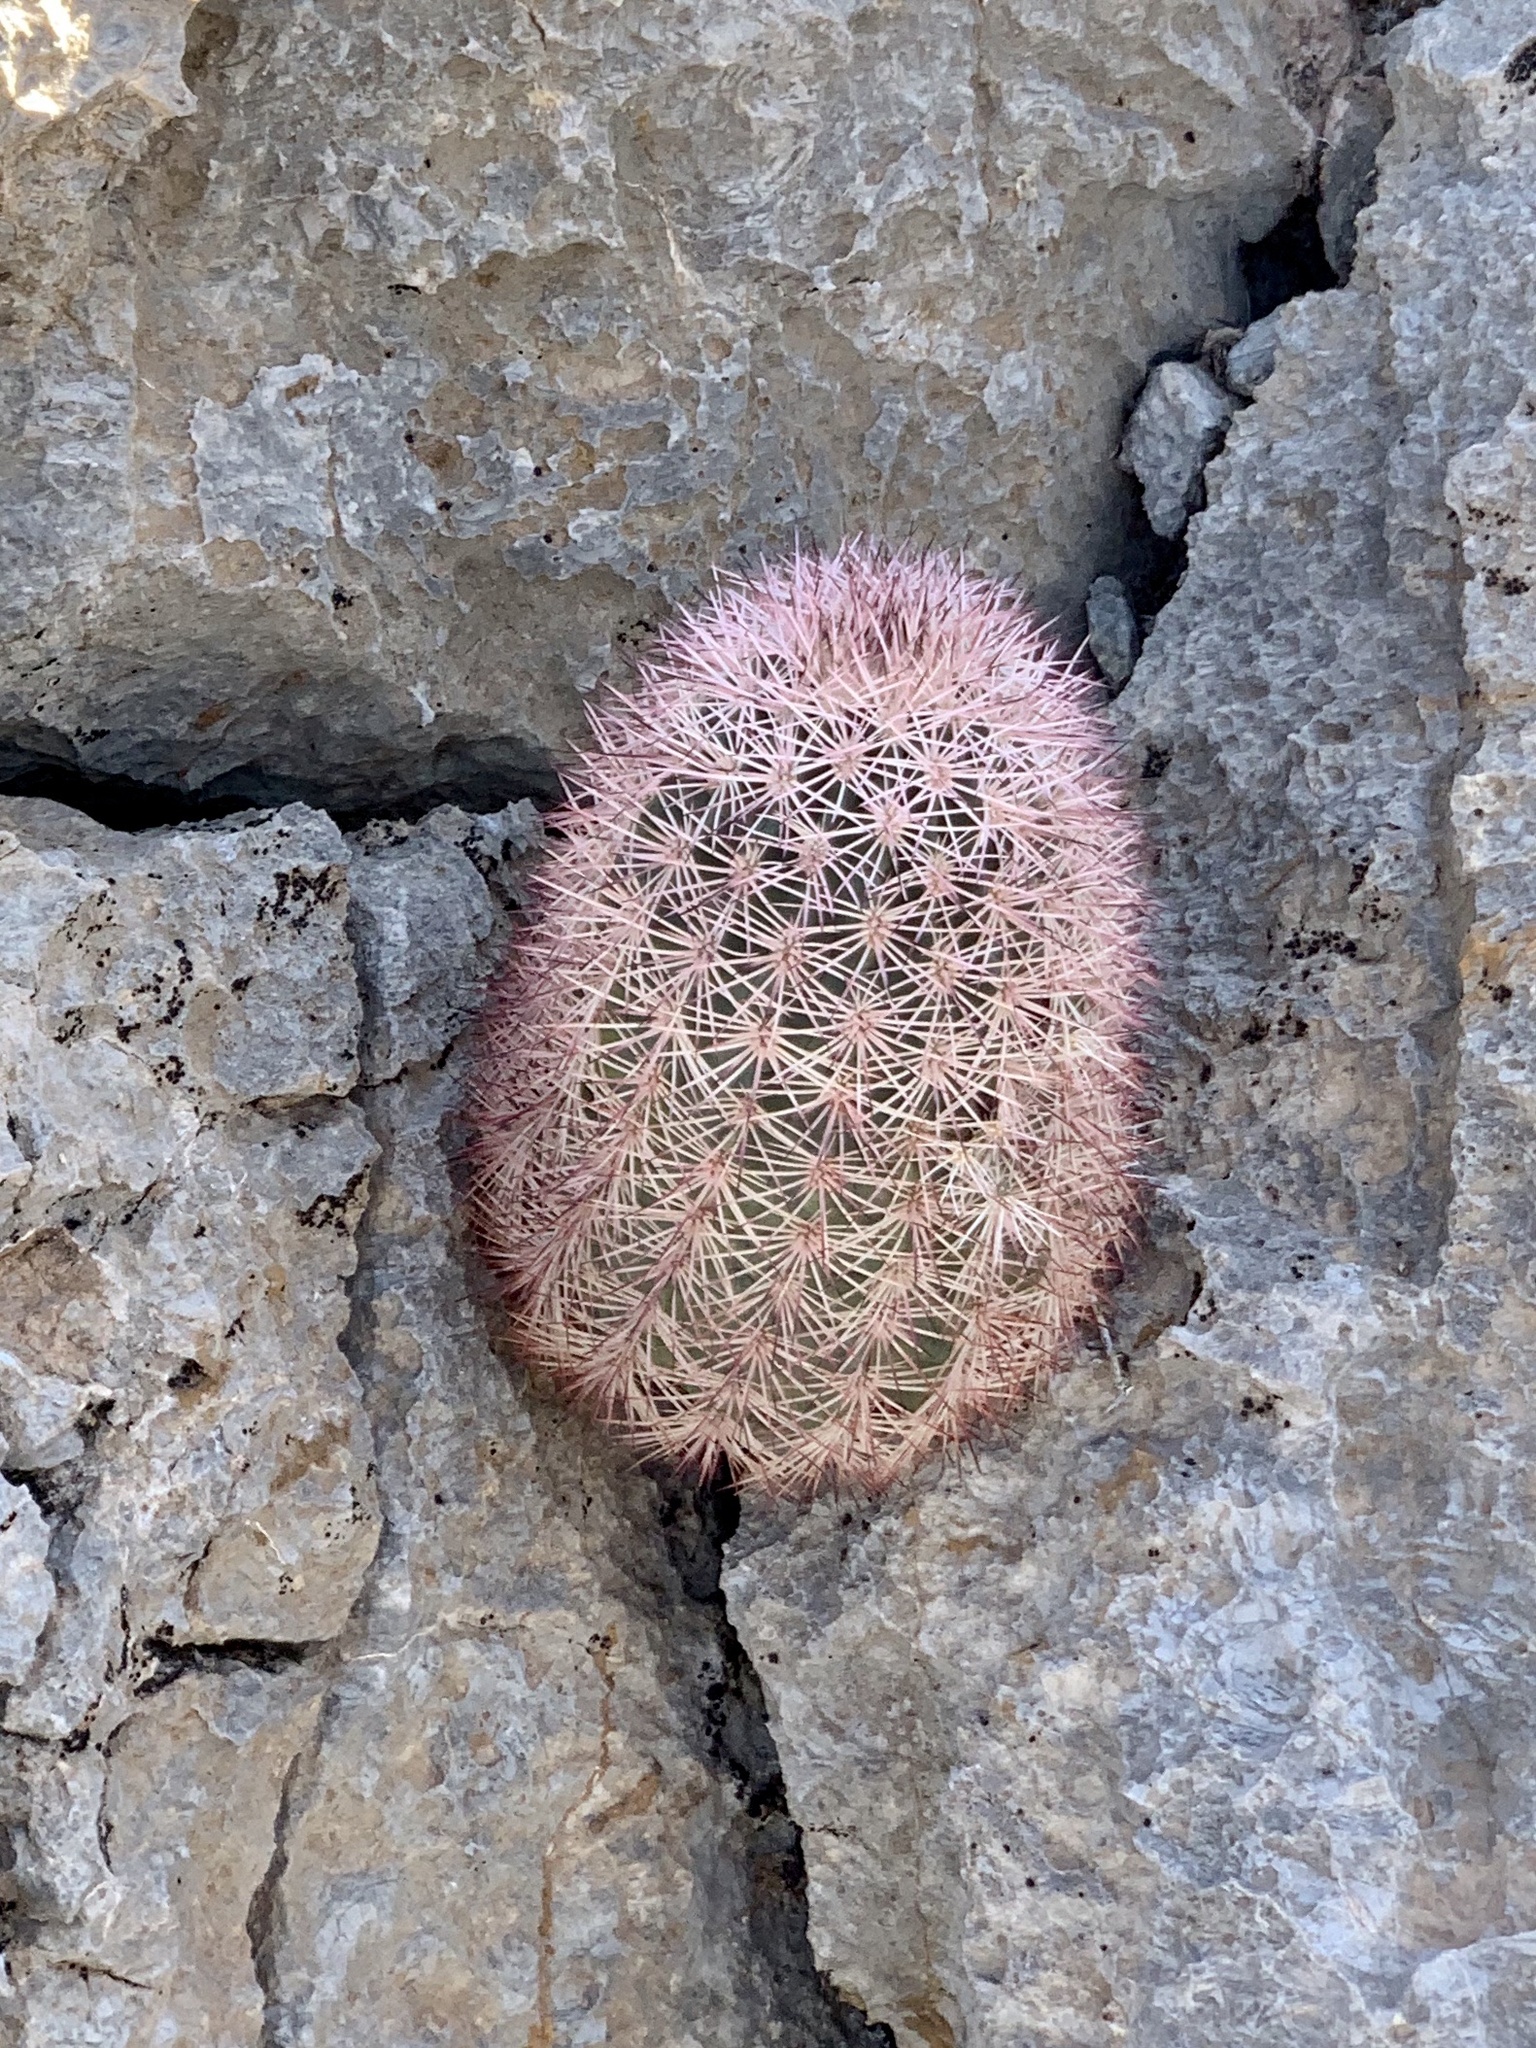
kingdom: Plantae
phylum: Tracheophyta
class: Magnoliopsida
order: Caryophyllales
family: Cactaceae
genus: Echinocereus
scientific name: Echinocereus dasyacanthus
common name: Spiny hedgehog cactus
